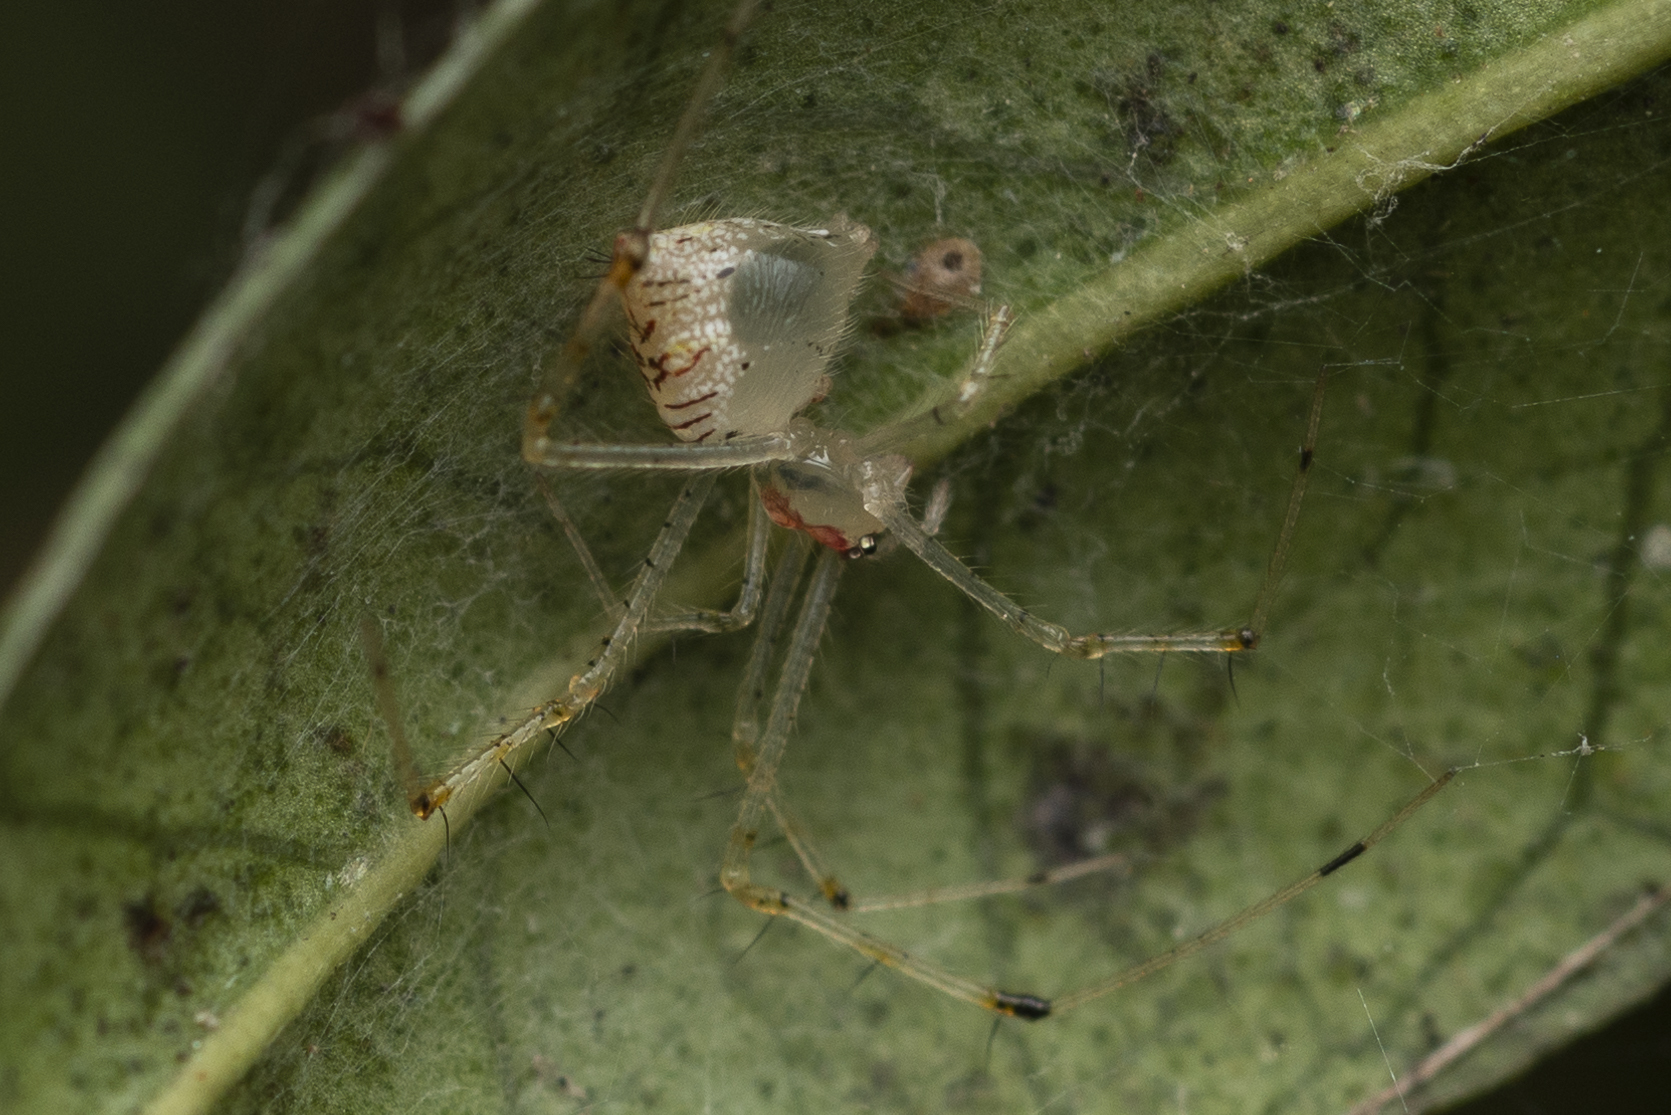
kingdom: Animalia
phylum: Arthropoda
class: Arachnida
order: Araneae
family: Theridiidae
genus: Chrysso
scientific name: Chrysso lingchuanensis
